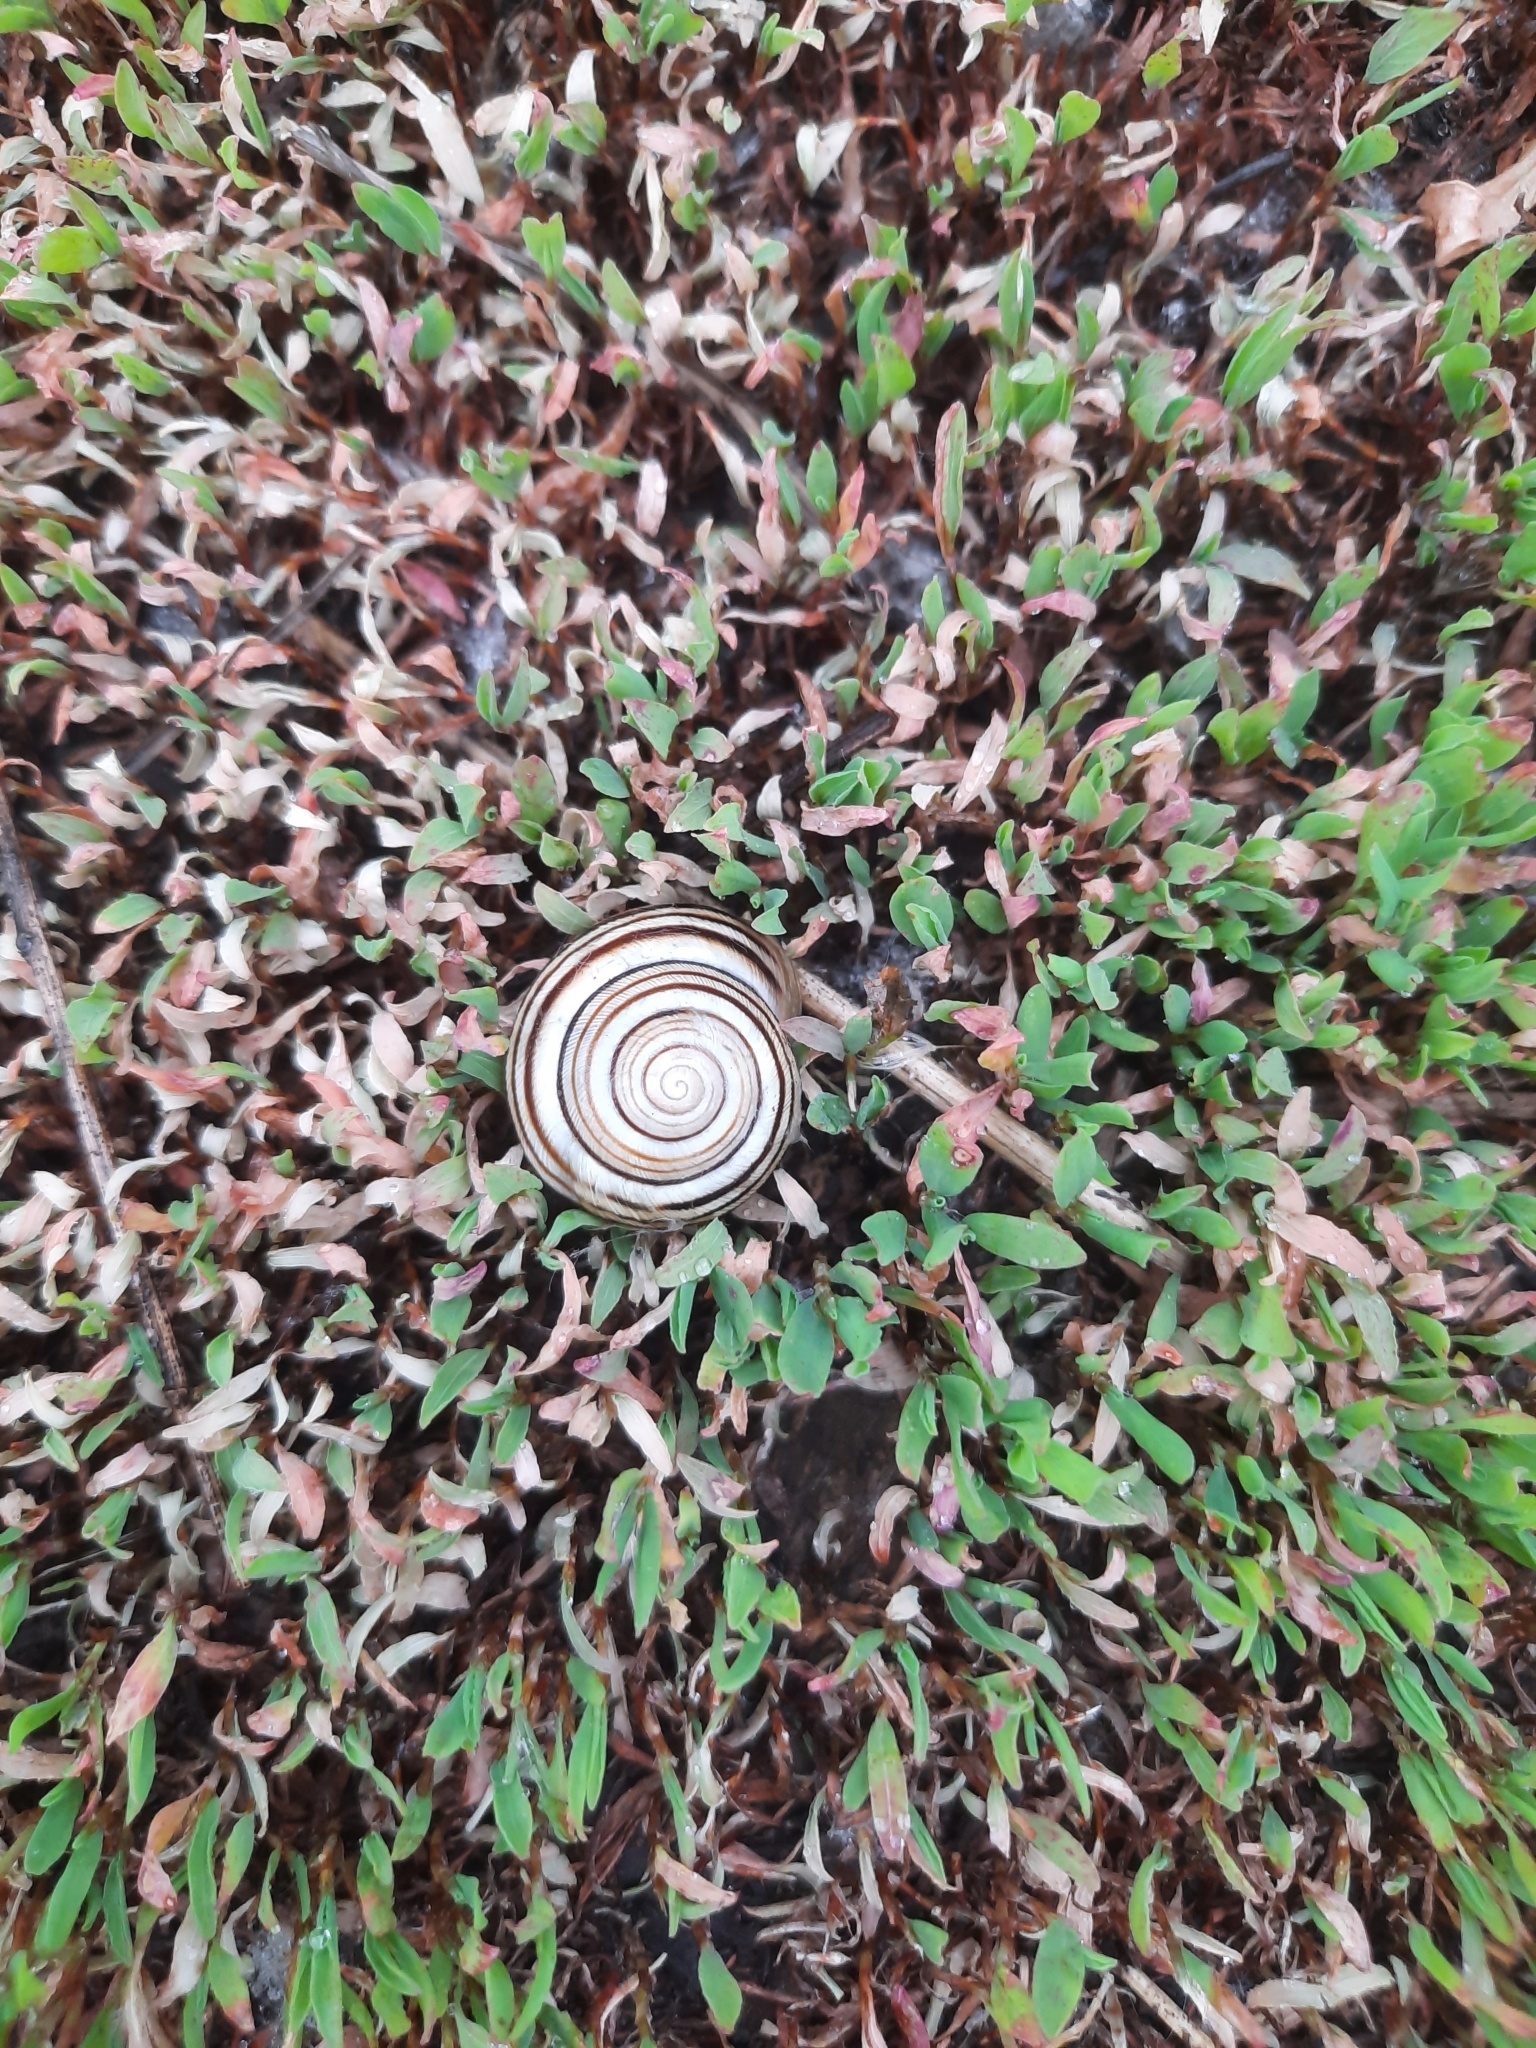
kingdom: Animalia
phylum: Mollusca
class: Gastropoda
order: Stylommatophora
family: Helicidae
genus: Caucasotachea
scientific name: Caucasotachea vindobonensis
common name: European helicid land snail
